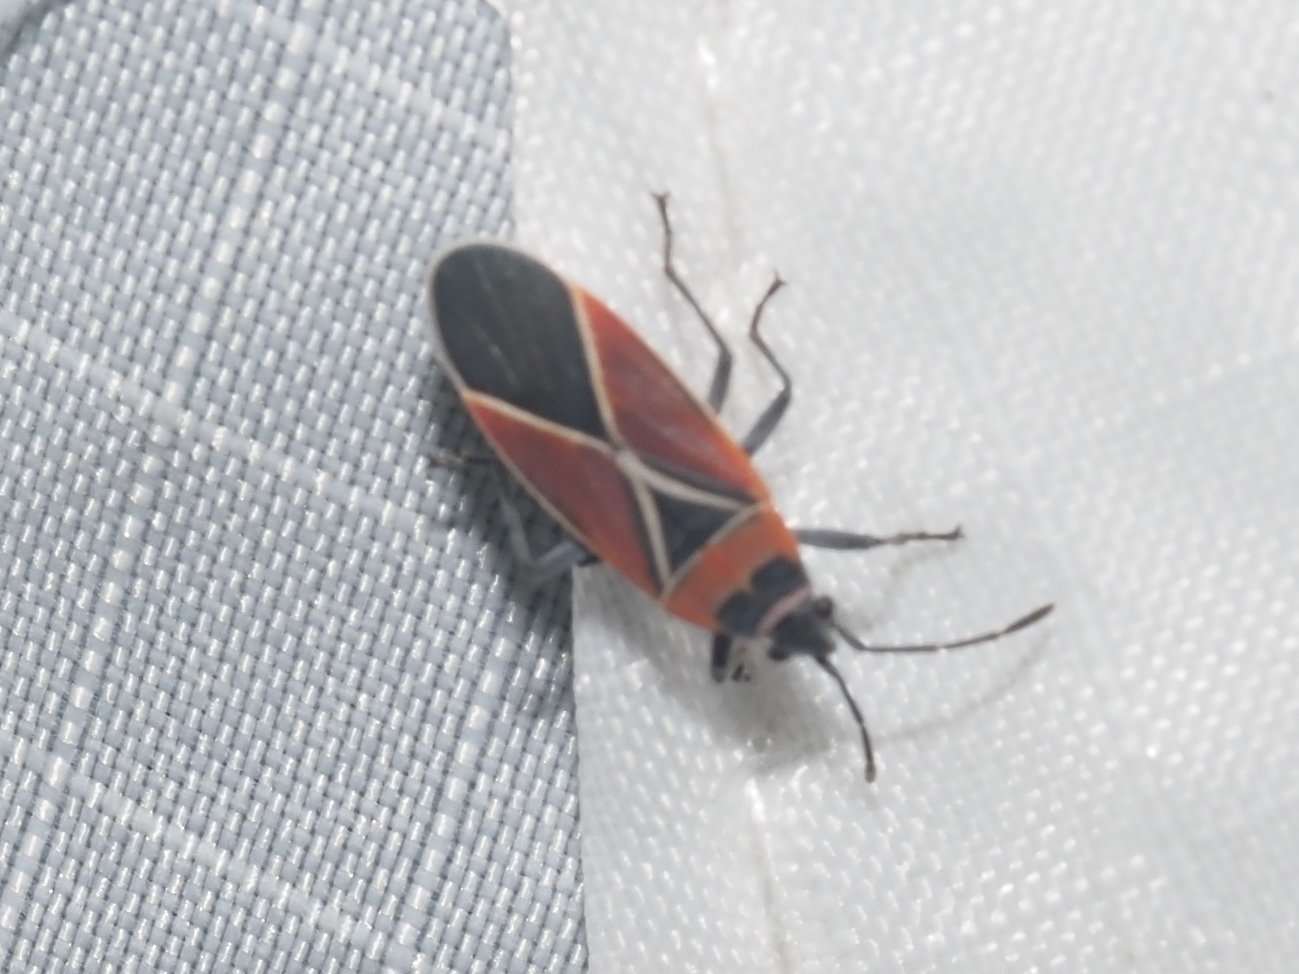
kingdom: Animalia
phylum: Arthropoda
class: Insecta
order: Hemiptera
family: Lygaeidae
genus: Neacoryphus
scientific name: Neacoryphus bicrucis
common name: Lygaeid bug
